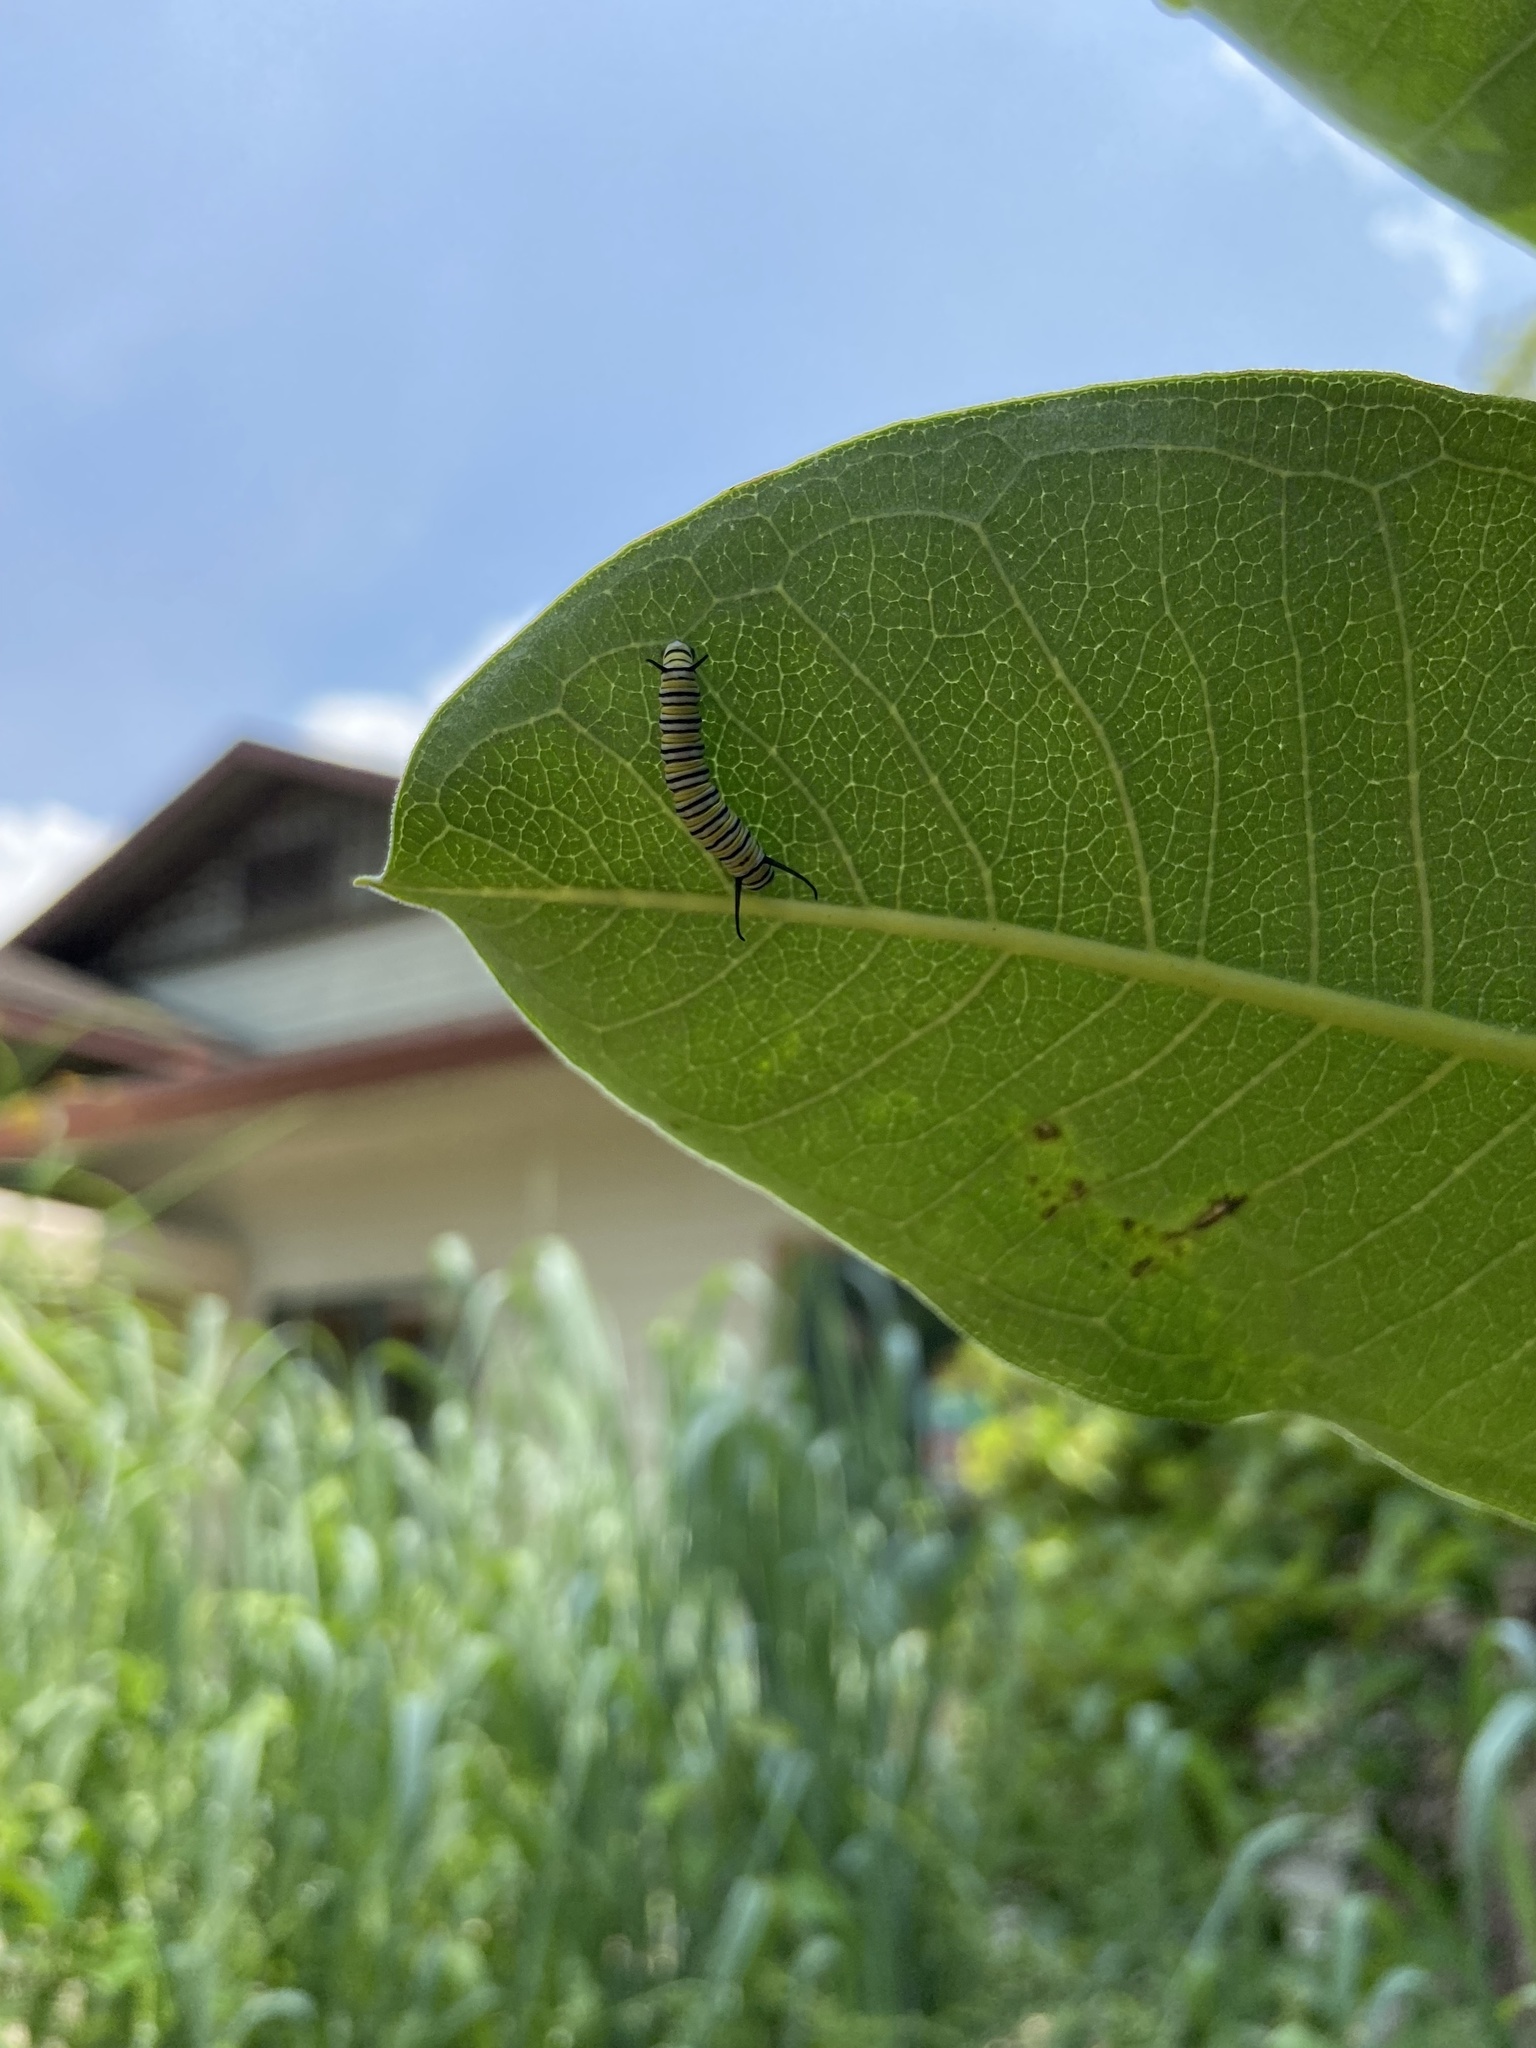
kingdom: Animalia
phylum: Arthropoda
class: Insecta
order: Lepidoptera
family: Nymphalidae
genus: Danaus
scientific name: Danaus plexippus
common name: Monarch
